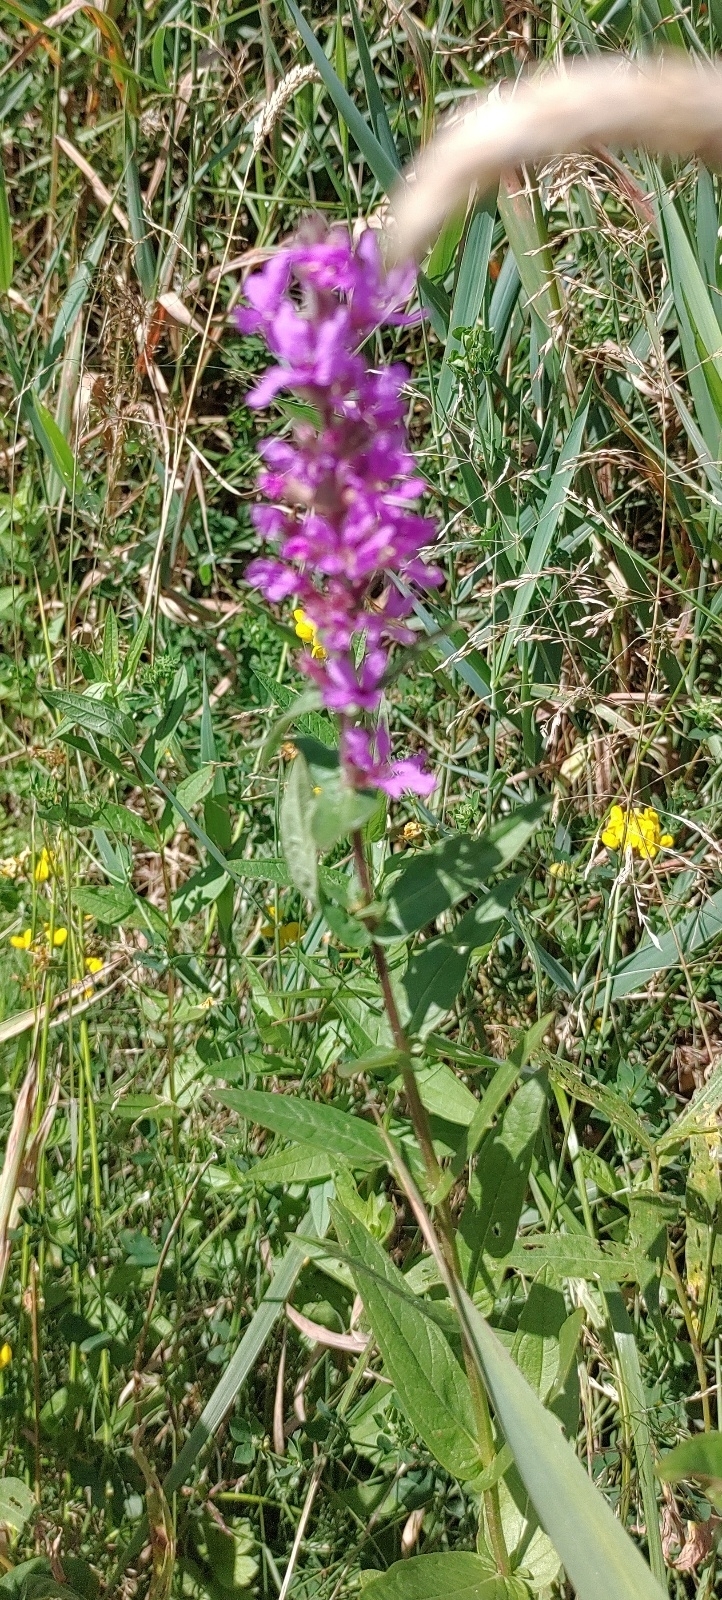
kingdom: Plantae
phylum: Tracheophyta
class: Magnoliopsida
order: Myrtales
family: Lythraceae
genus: Lythrum
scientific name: Lythrum salicaria
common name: Purple loosestrife
